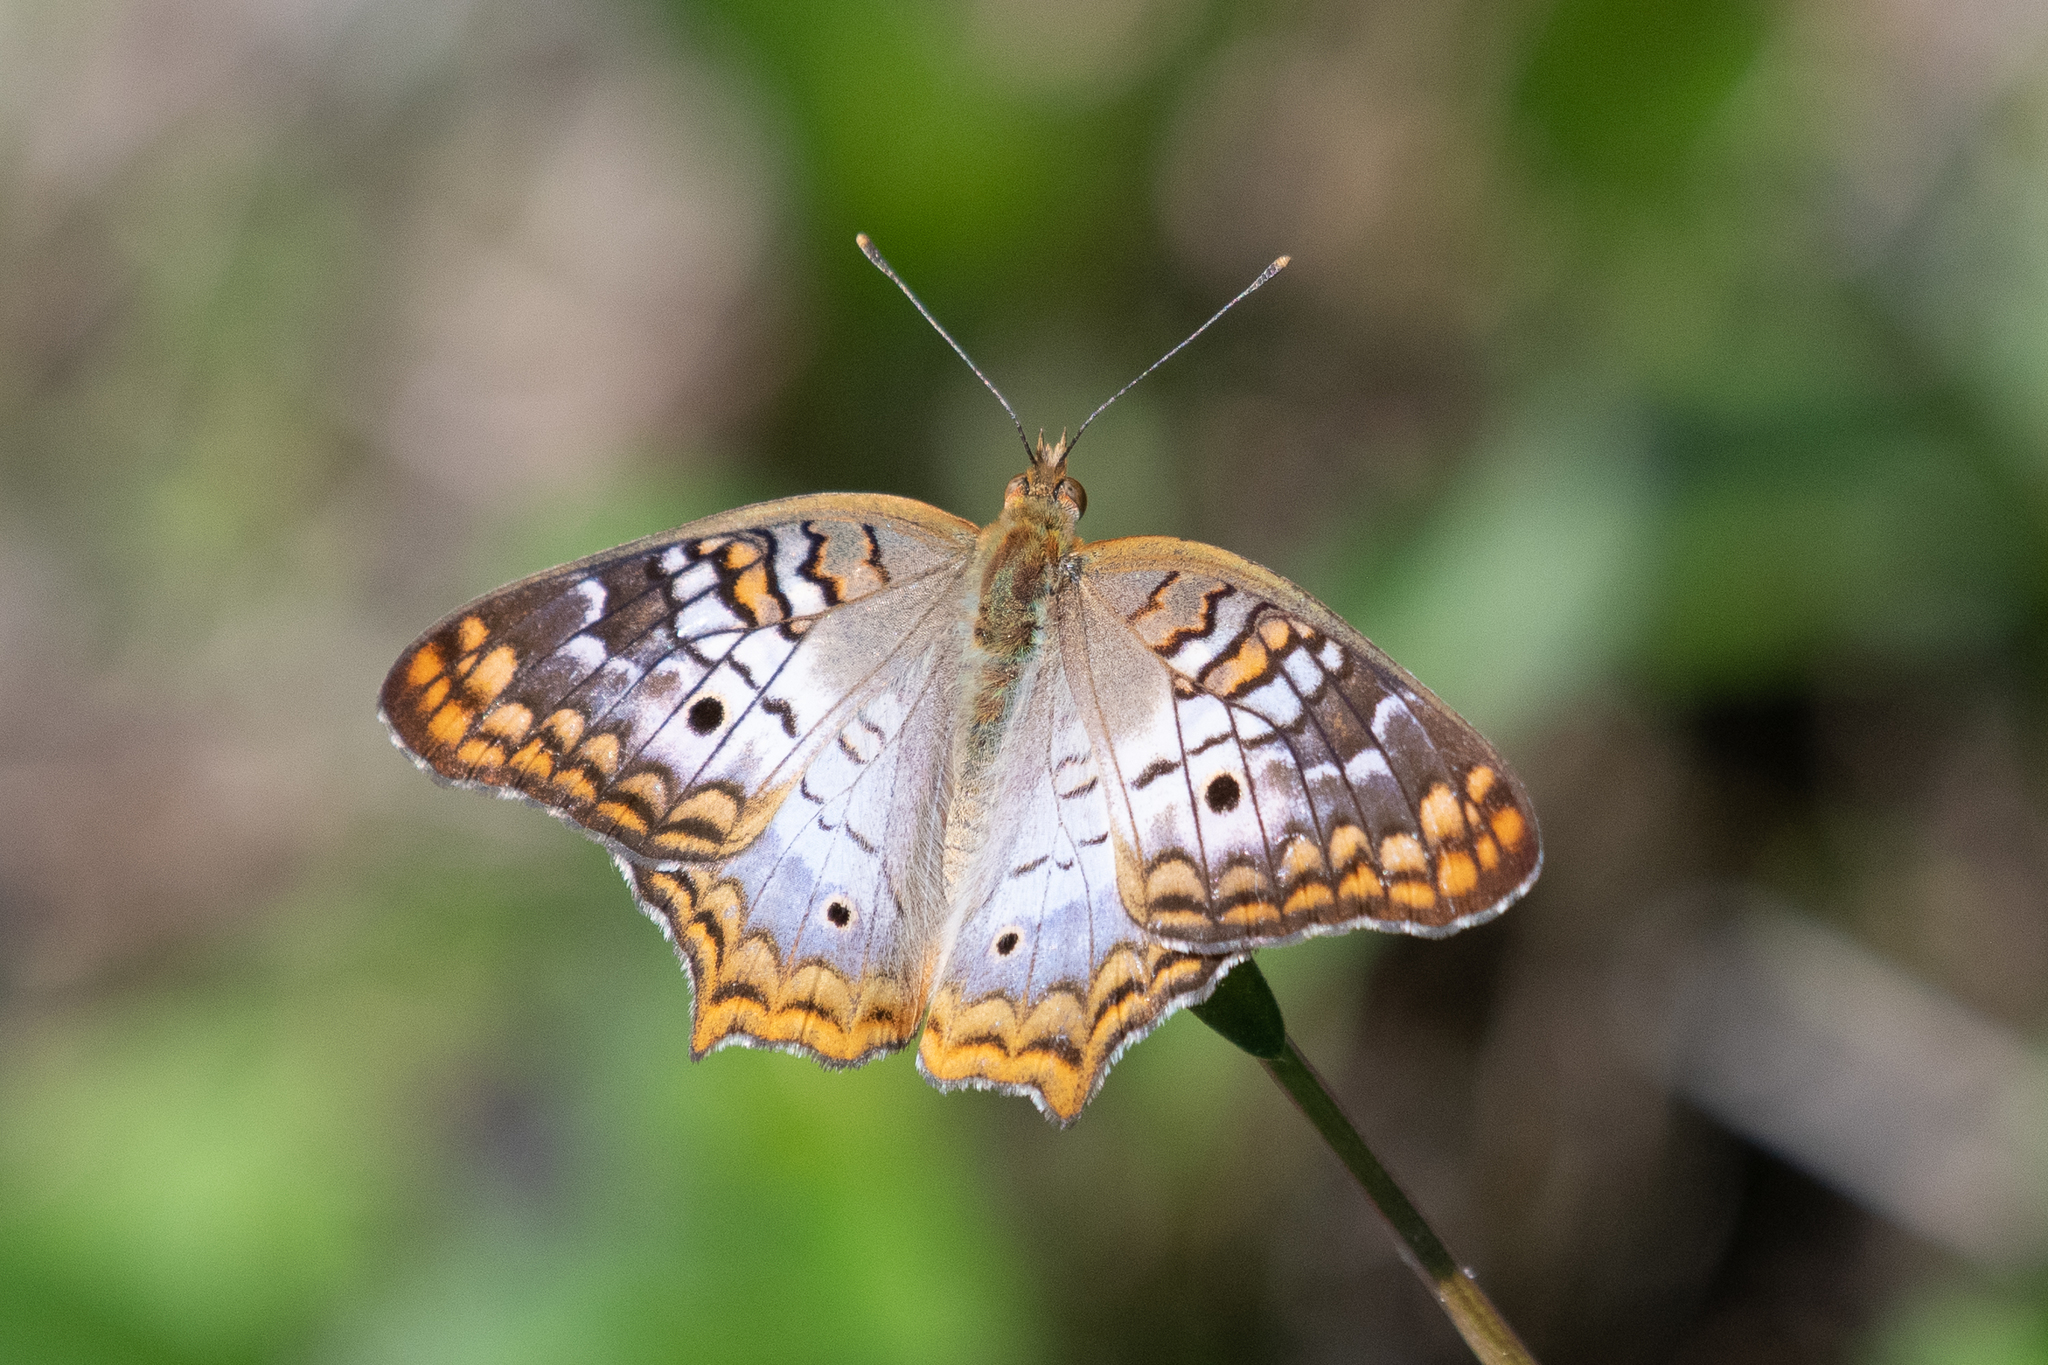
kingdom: Animalia
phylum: Arthropoda
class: Insecta
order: Lepidoptera
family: Nymphalidae
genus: Anartia
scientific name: Anartia jatrophae
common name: White peacock
